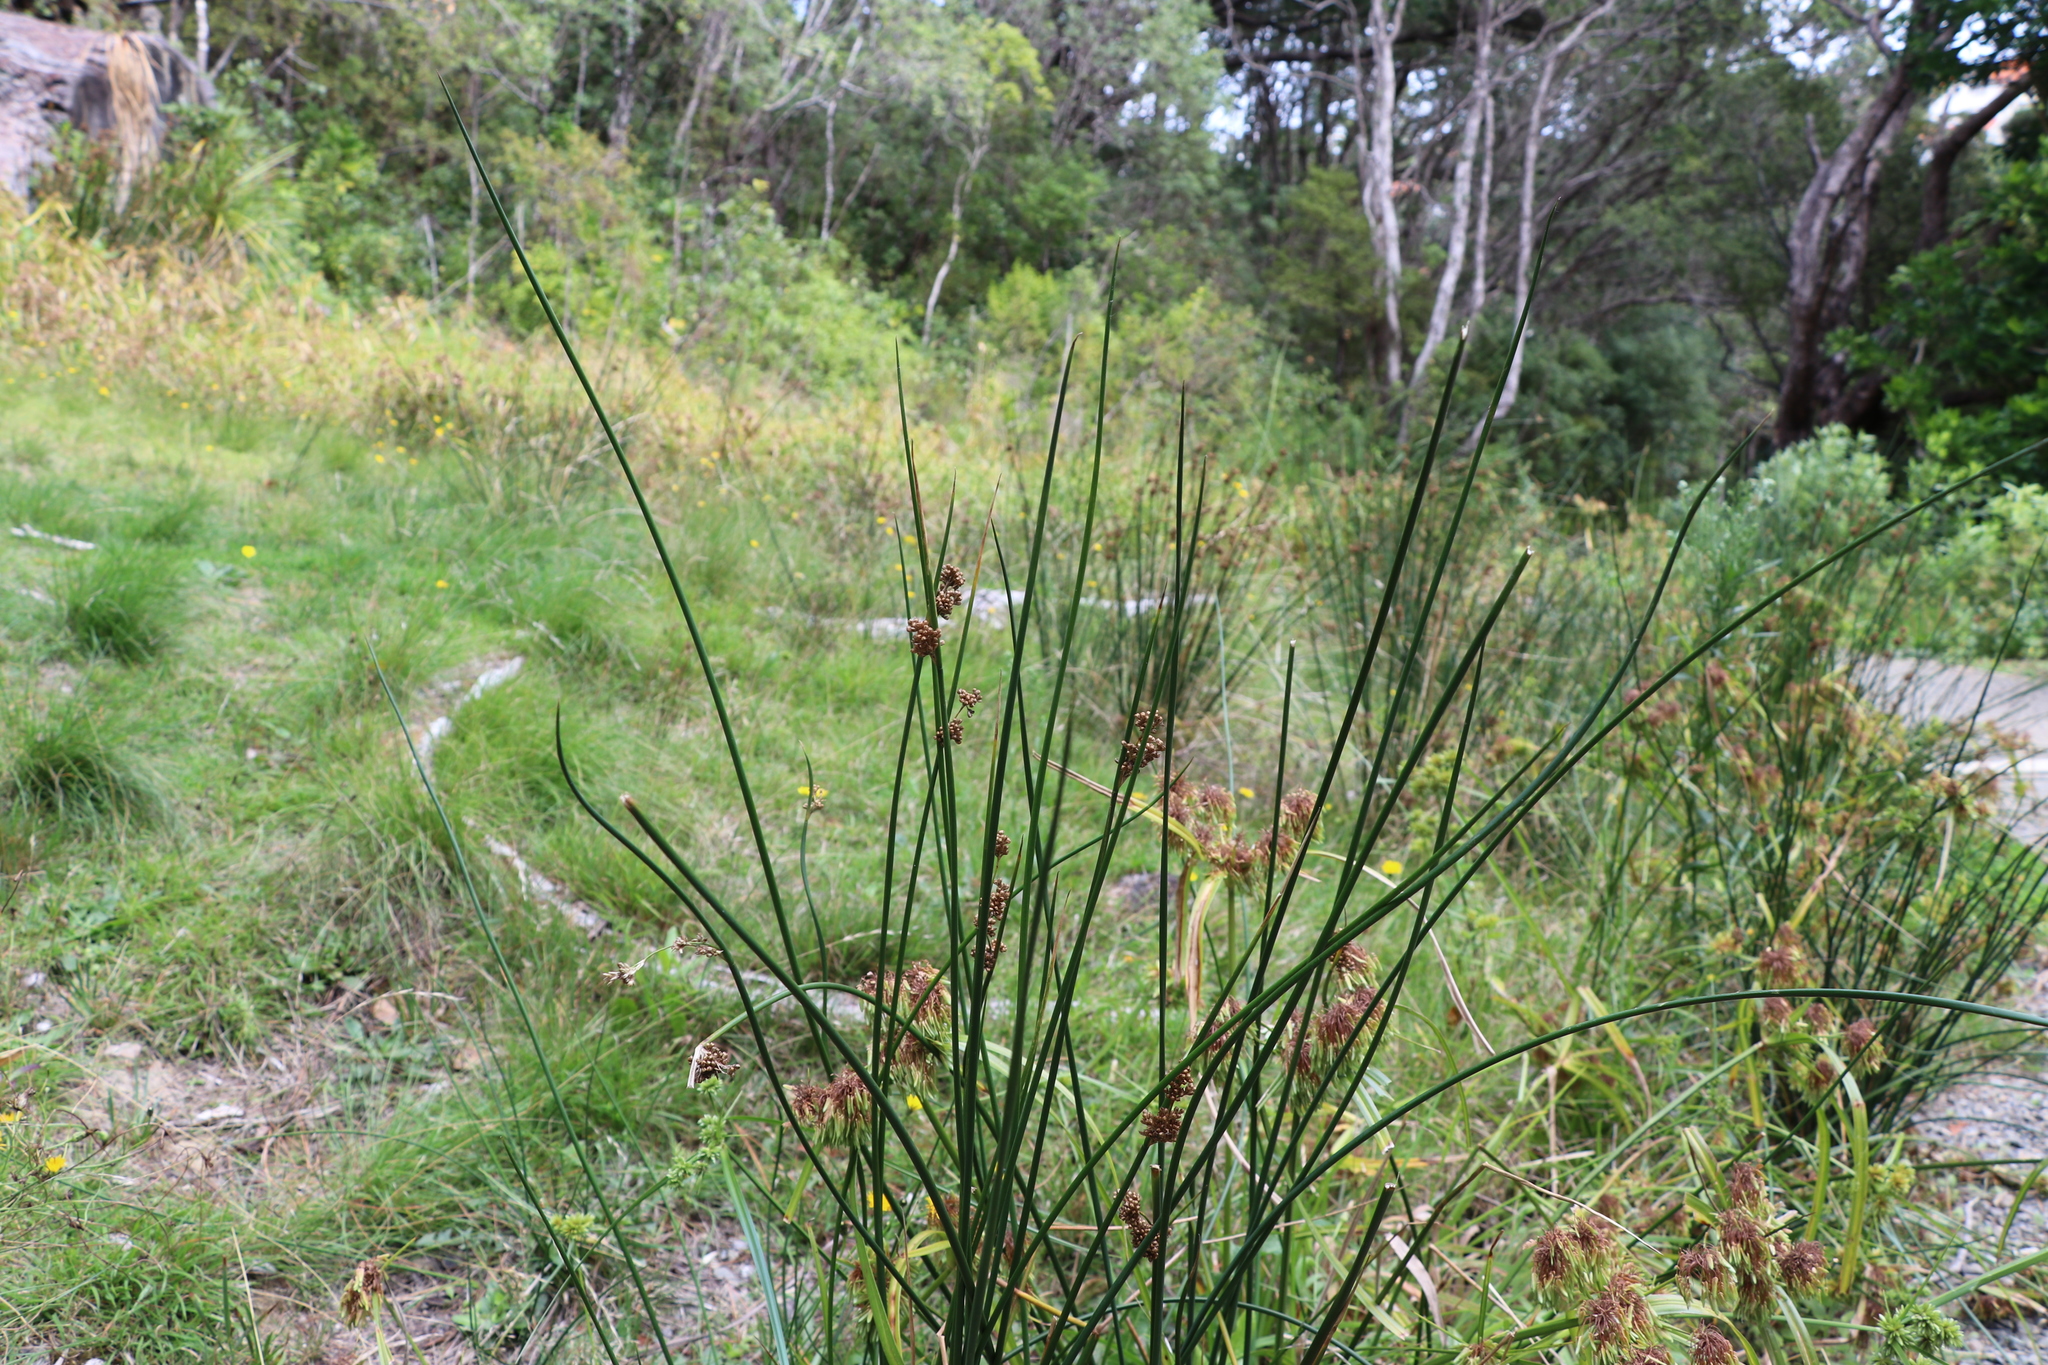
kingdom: Plantae
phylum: Tracheophyta
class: Liliopsida
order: Poales
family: Juncaceae
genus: Juncus
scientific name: Juncus effusus
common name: Soft rush
